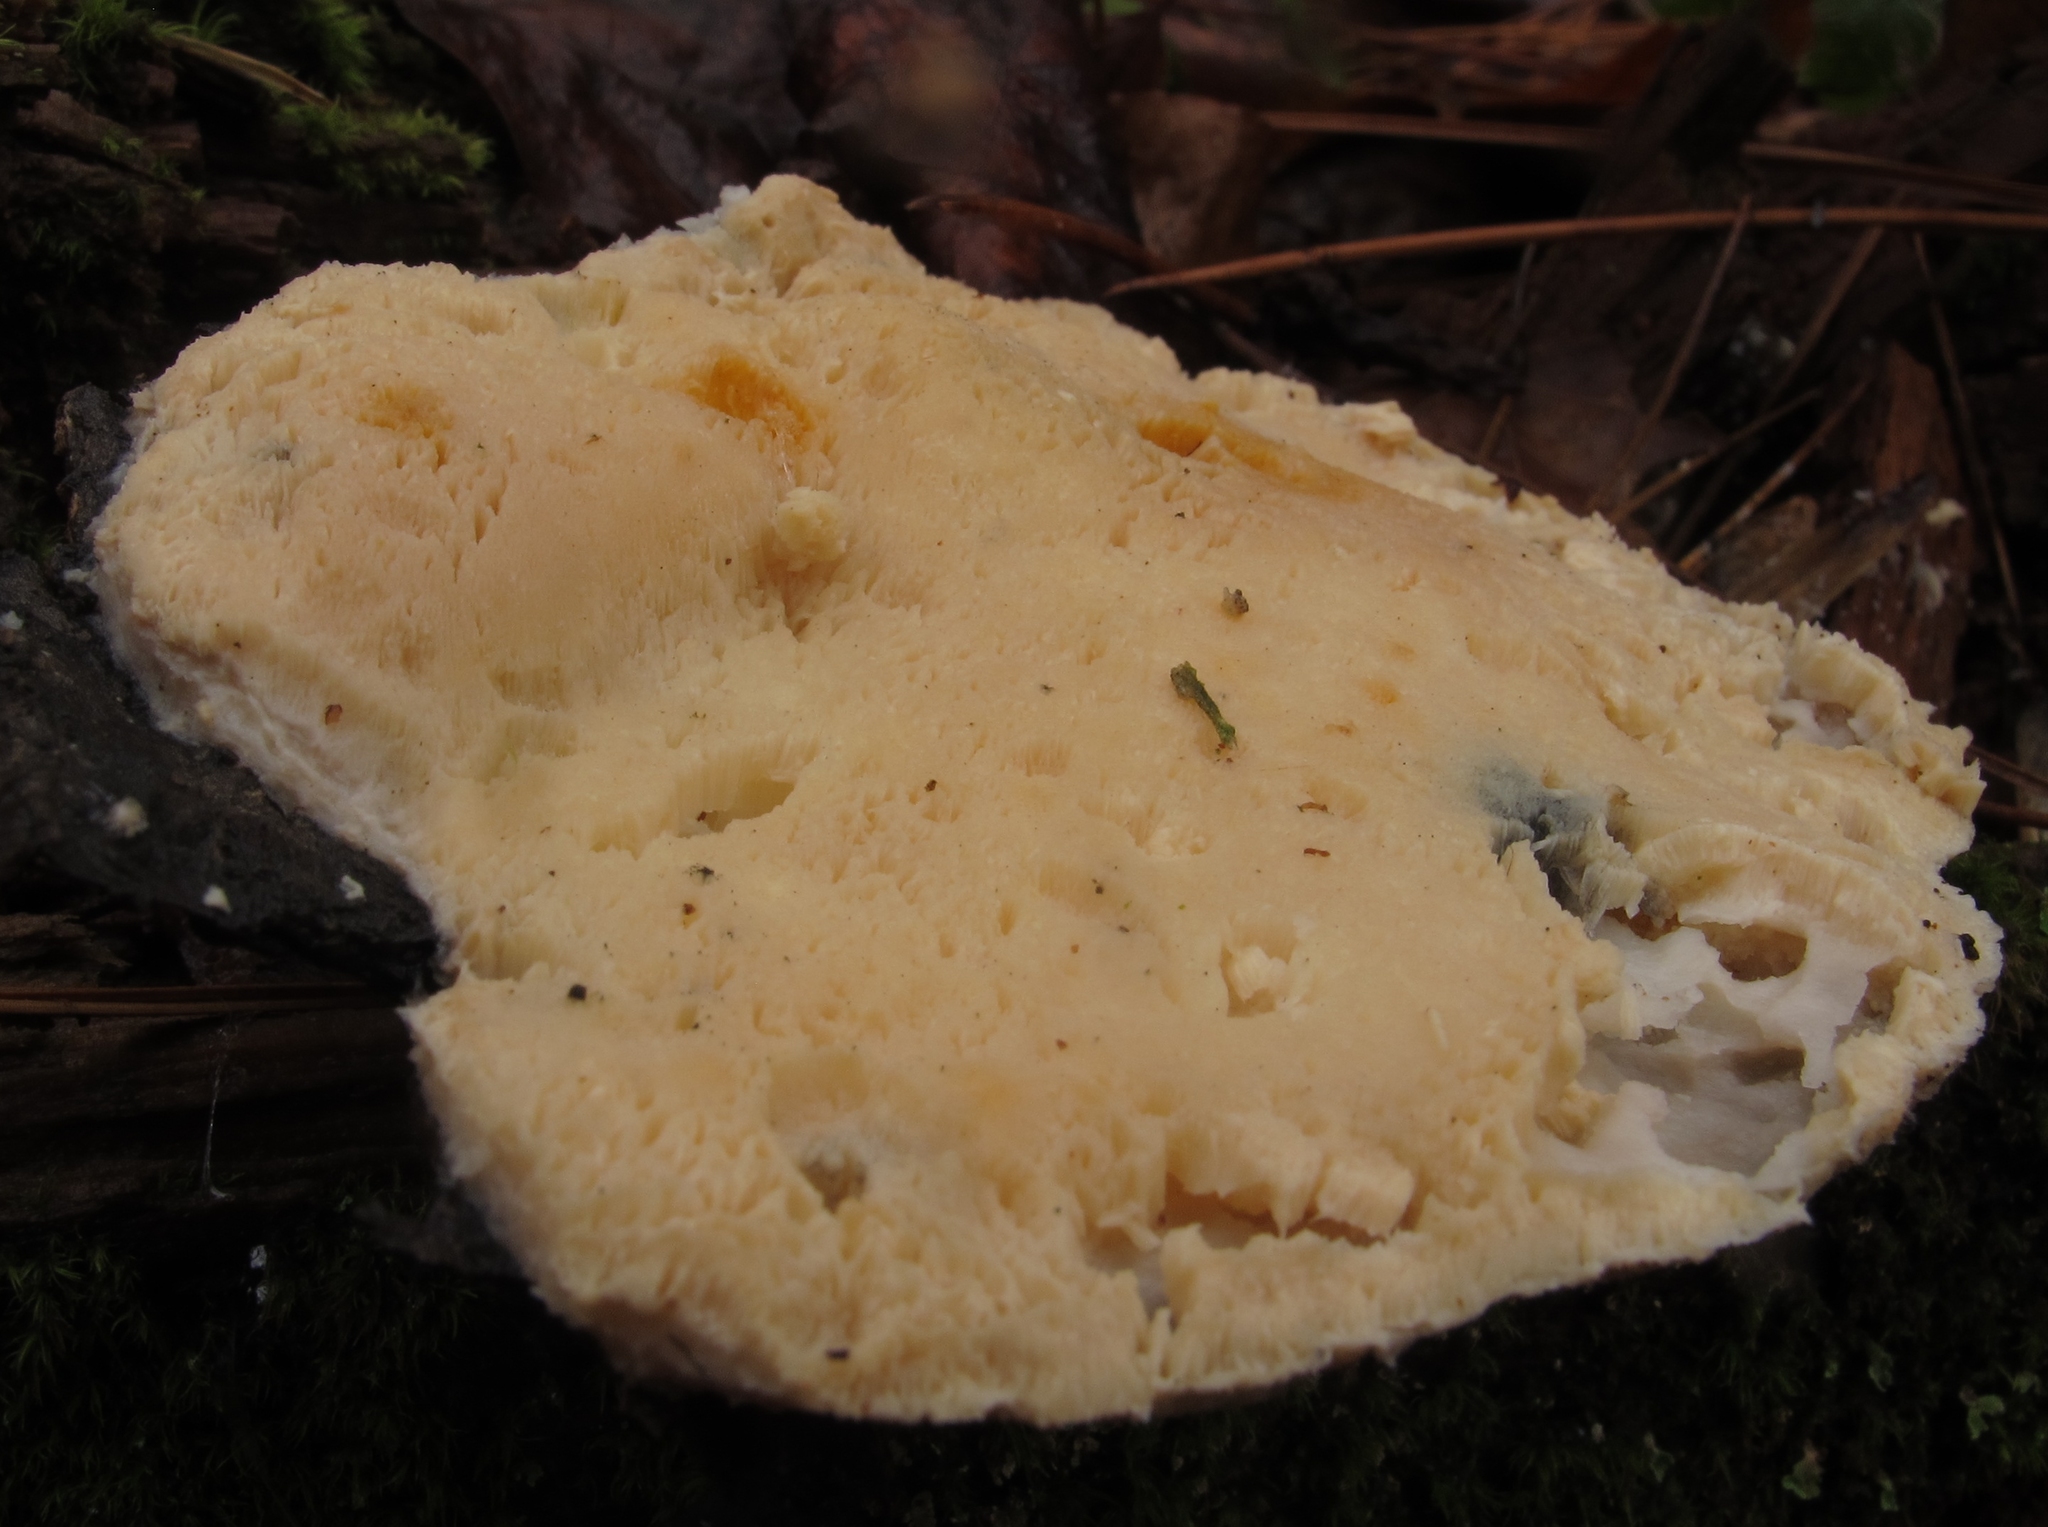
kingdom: Fungi
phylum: Basidiomycota
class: Agaricomycetes
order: Polyporales
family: Polyporaceae
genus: Cyanosporus
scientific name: Cyanosporus caesius
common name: Blue cheese polypore
